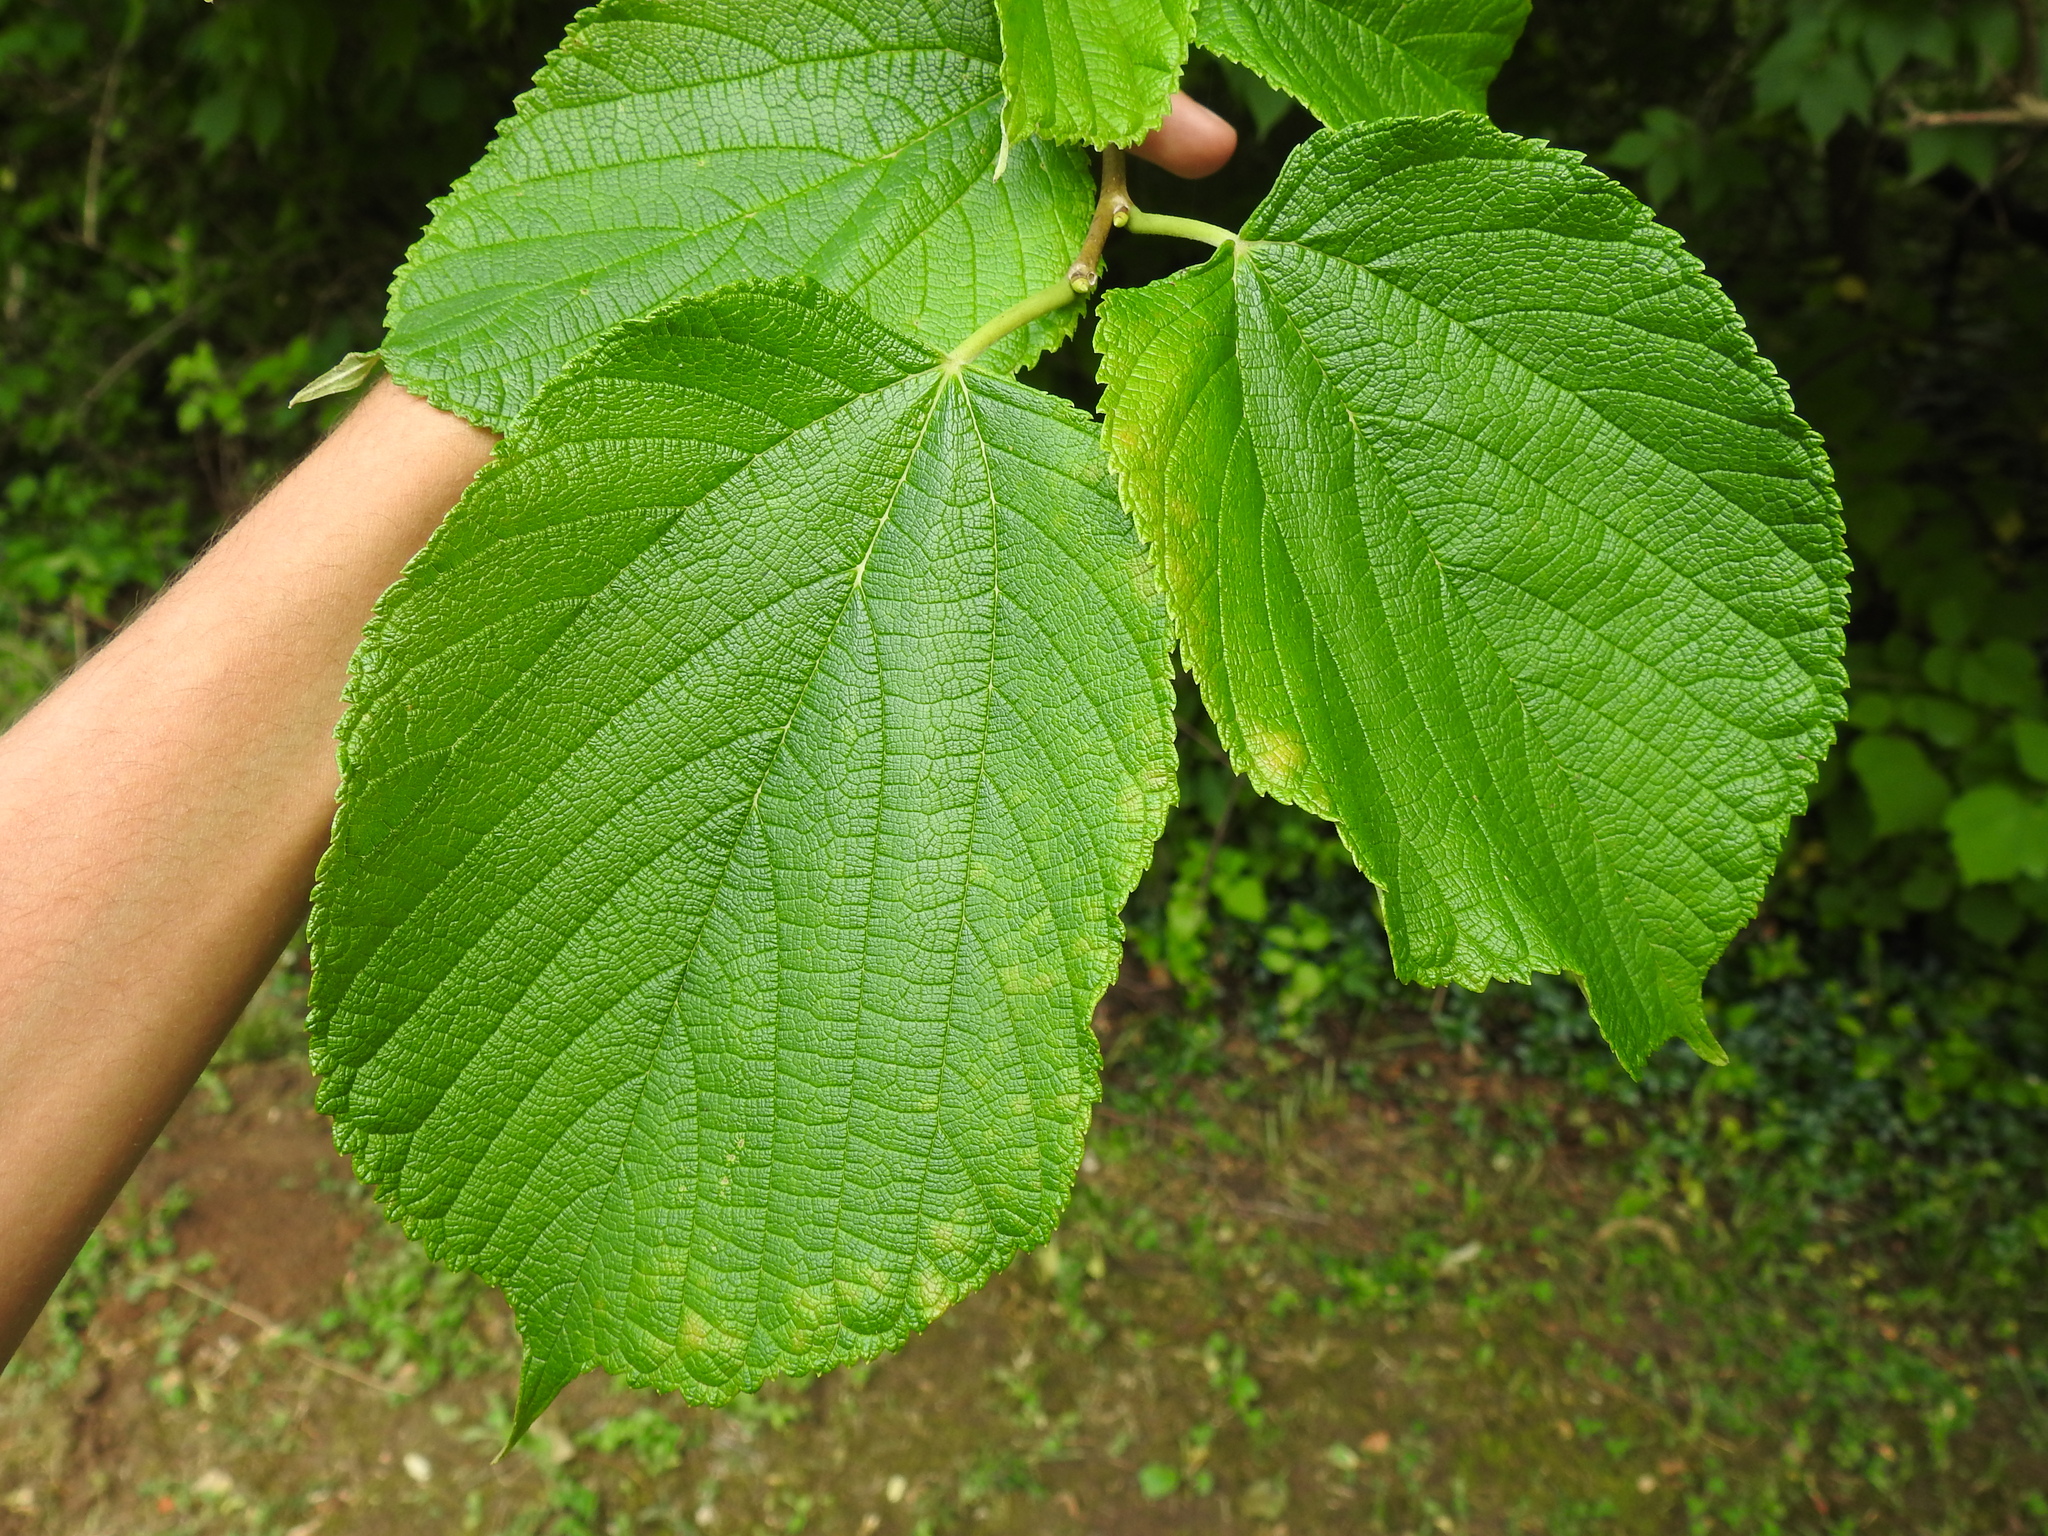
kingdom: Plantae
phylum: Tracheophyta
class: Magnoliopsida
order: Rosales
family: Moraceae
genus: Morus
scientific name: Morus rubra
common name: Red mulberry
